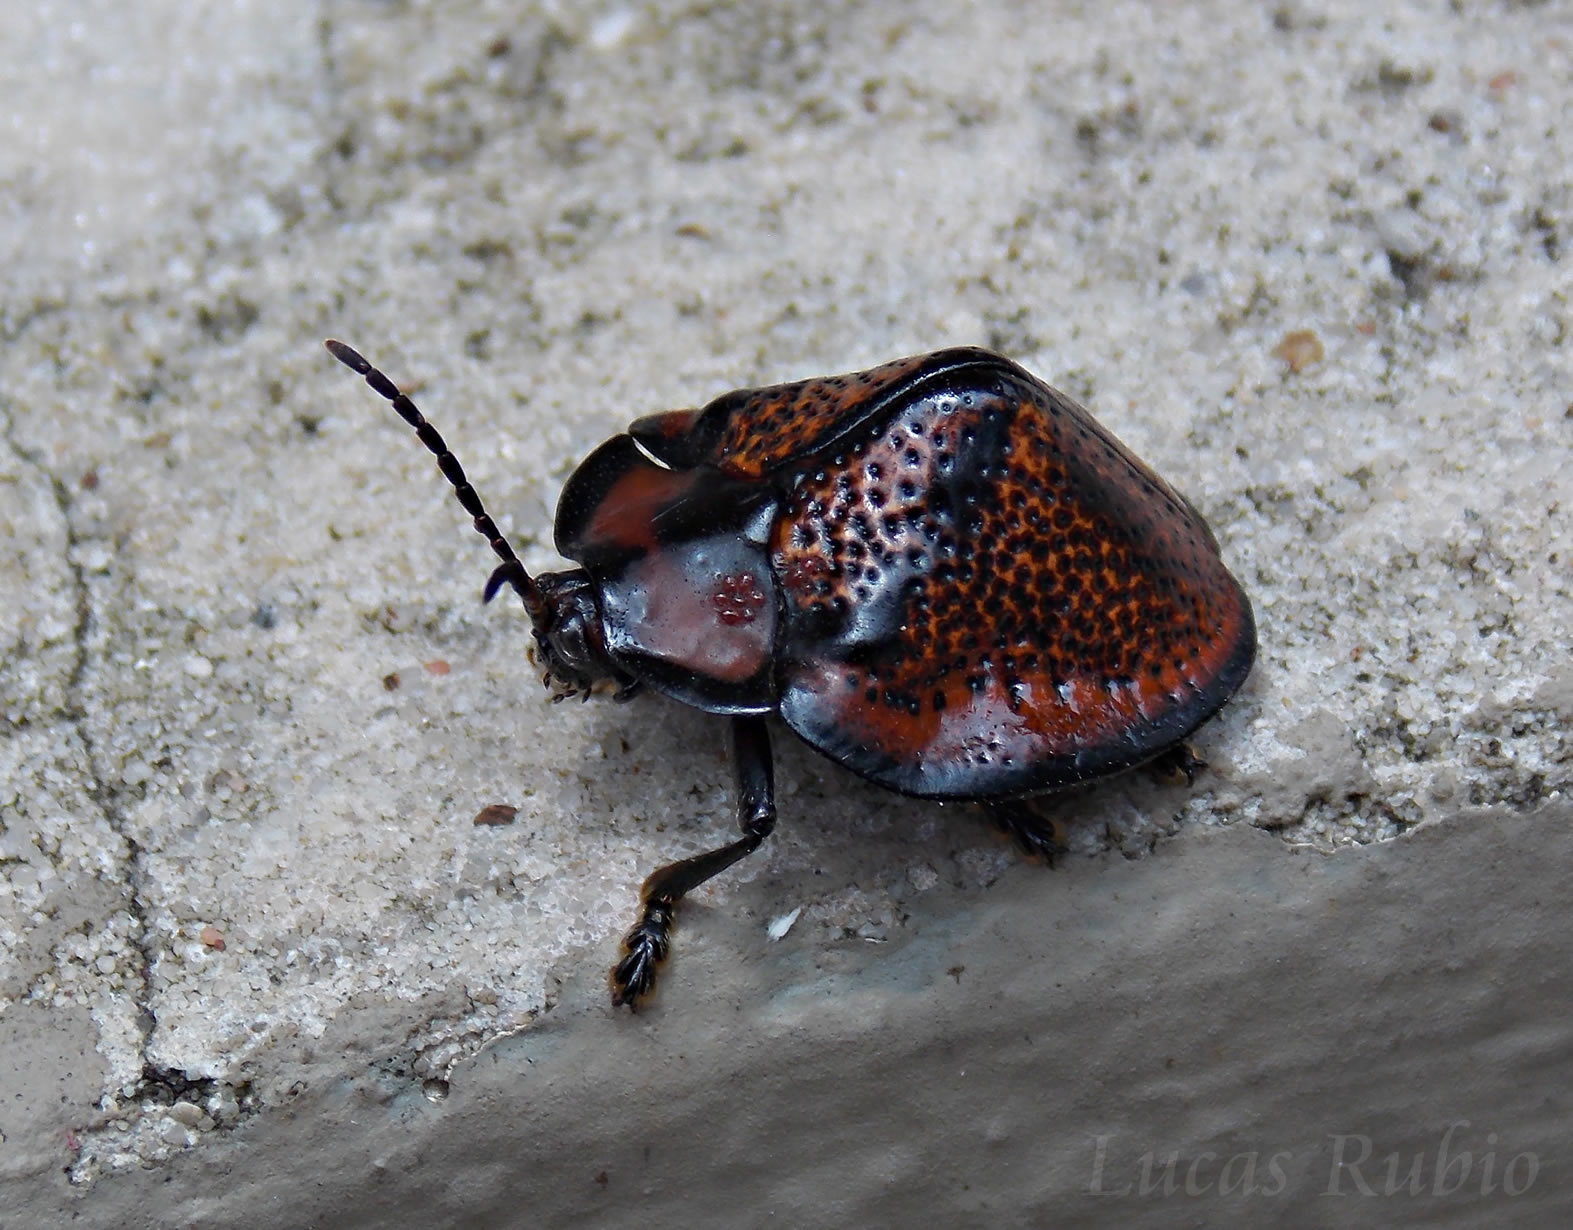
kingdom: Animalia
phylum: Arthropoda
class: Insecta
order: Coleoptera
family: Chrysomelidae
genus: Canistra
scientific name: Canistra rubiginosa
